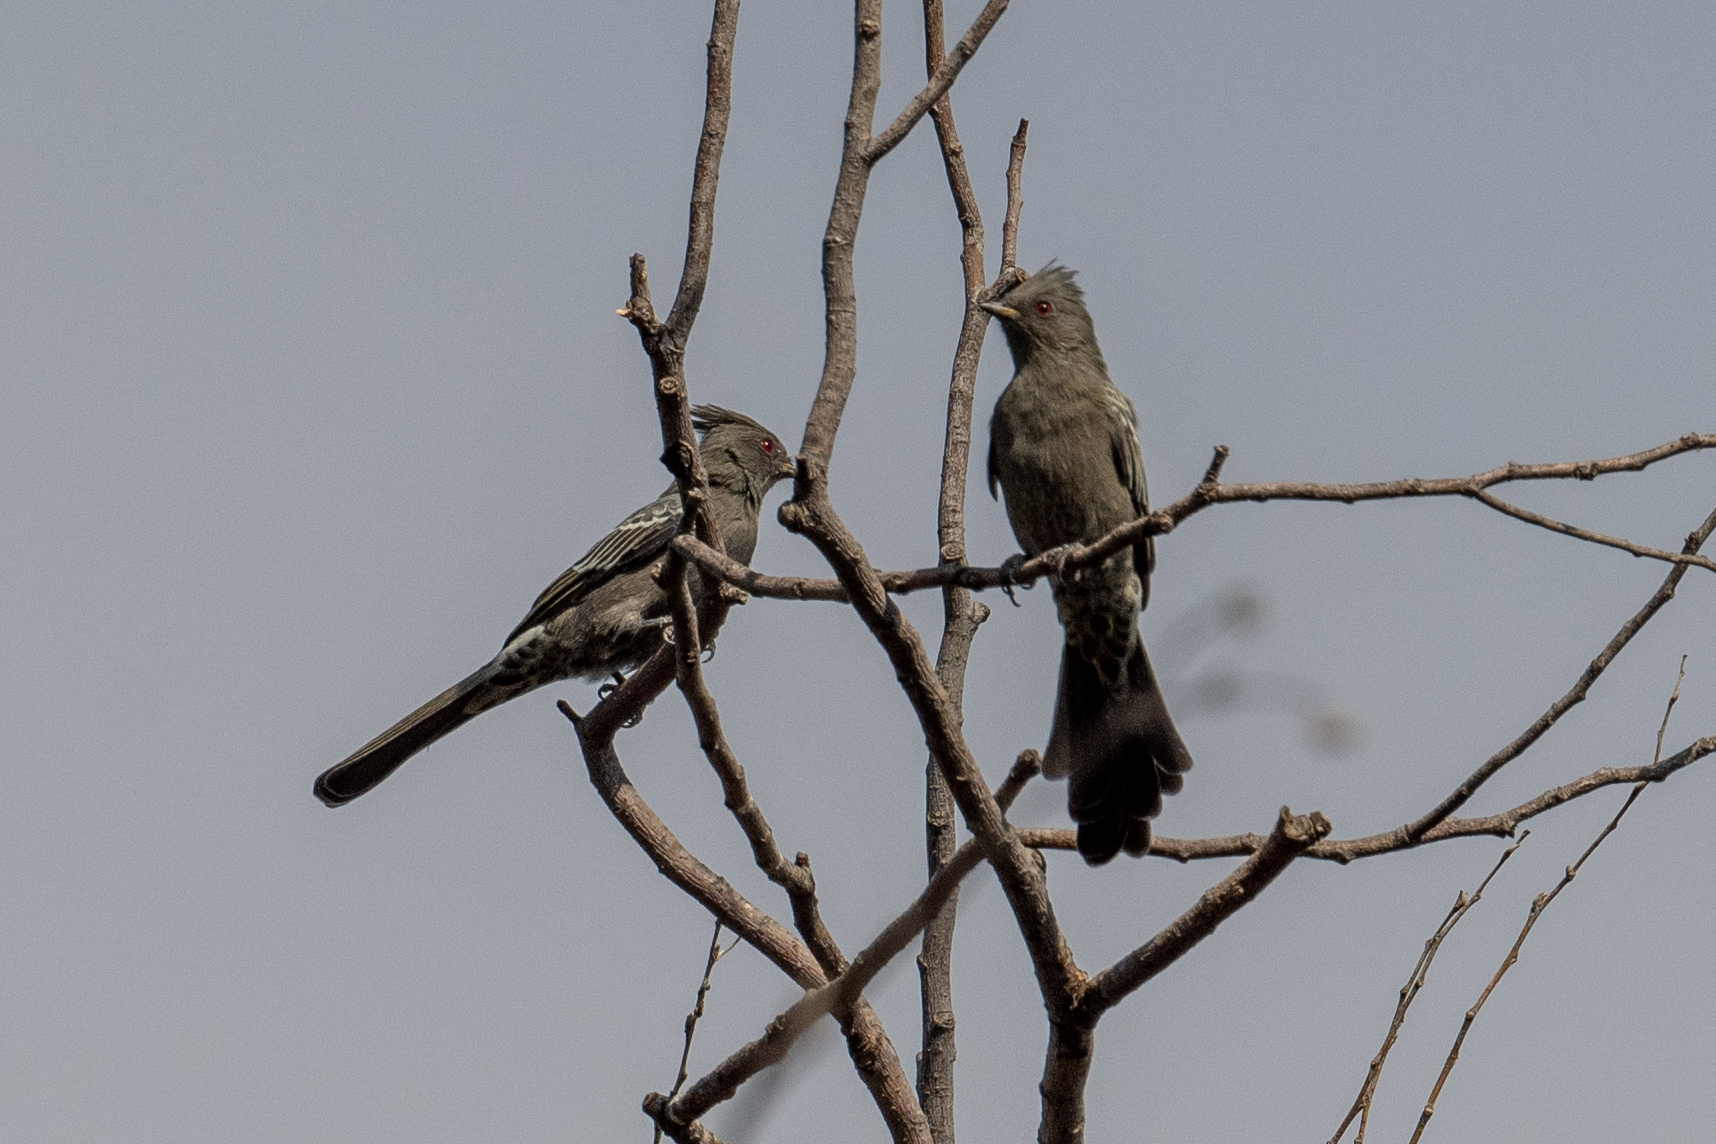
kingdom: Animalia
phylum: Chordata
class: Aves
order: Passeriformes
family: Ptilogonatidae
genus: Phainopepla
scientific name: Phainopepla nitens
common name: Phainopepla
